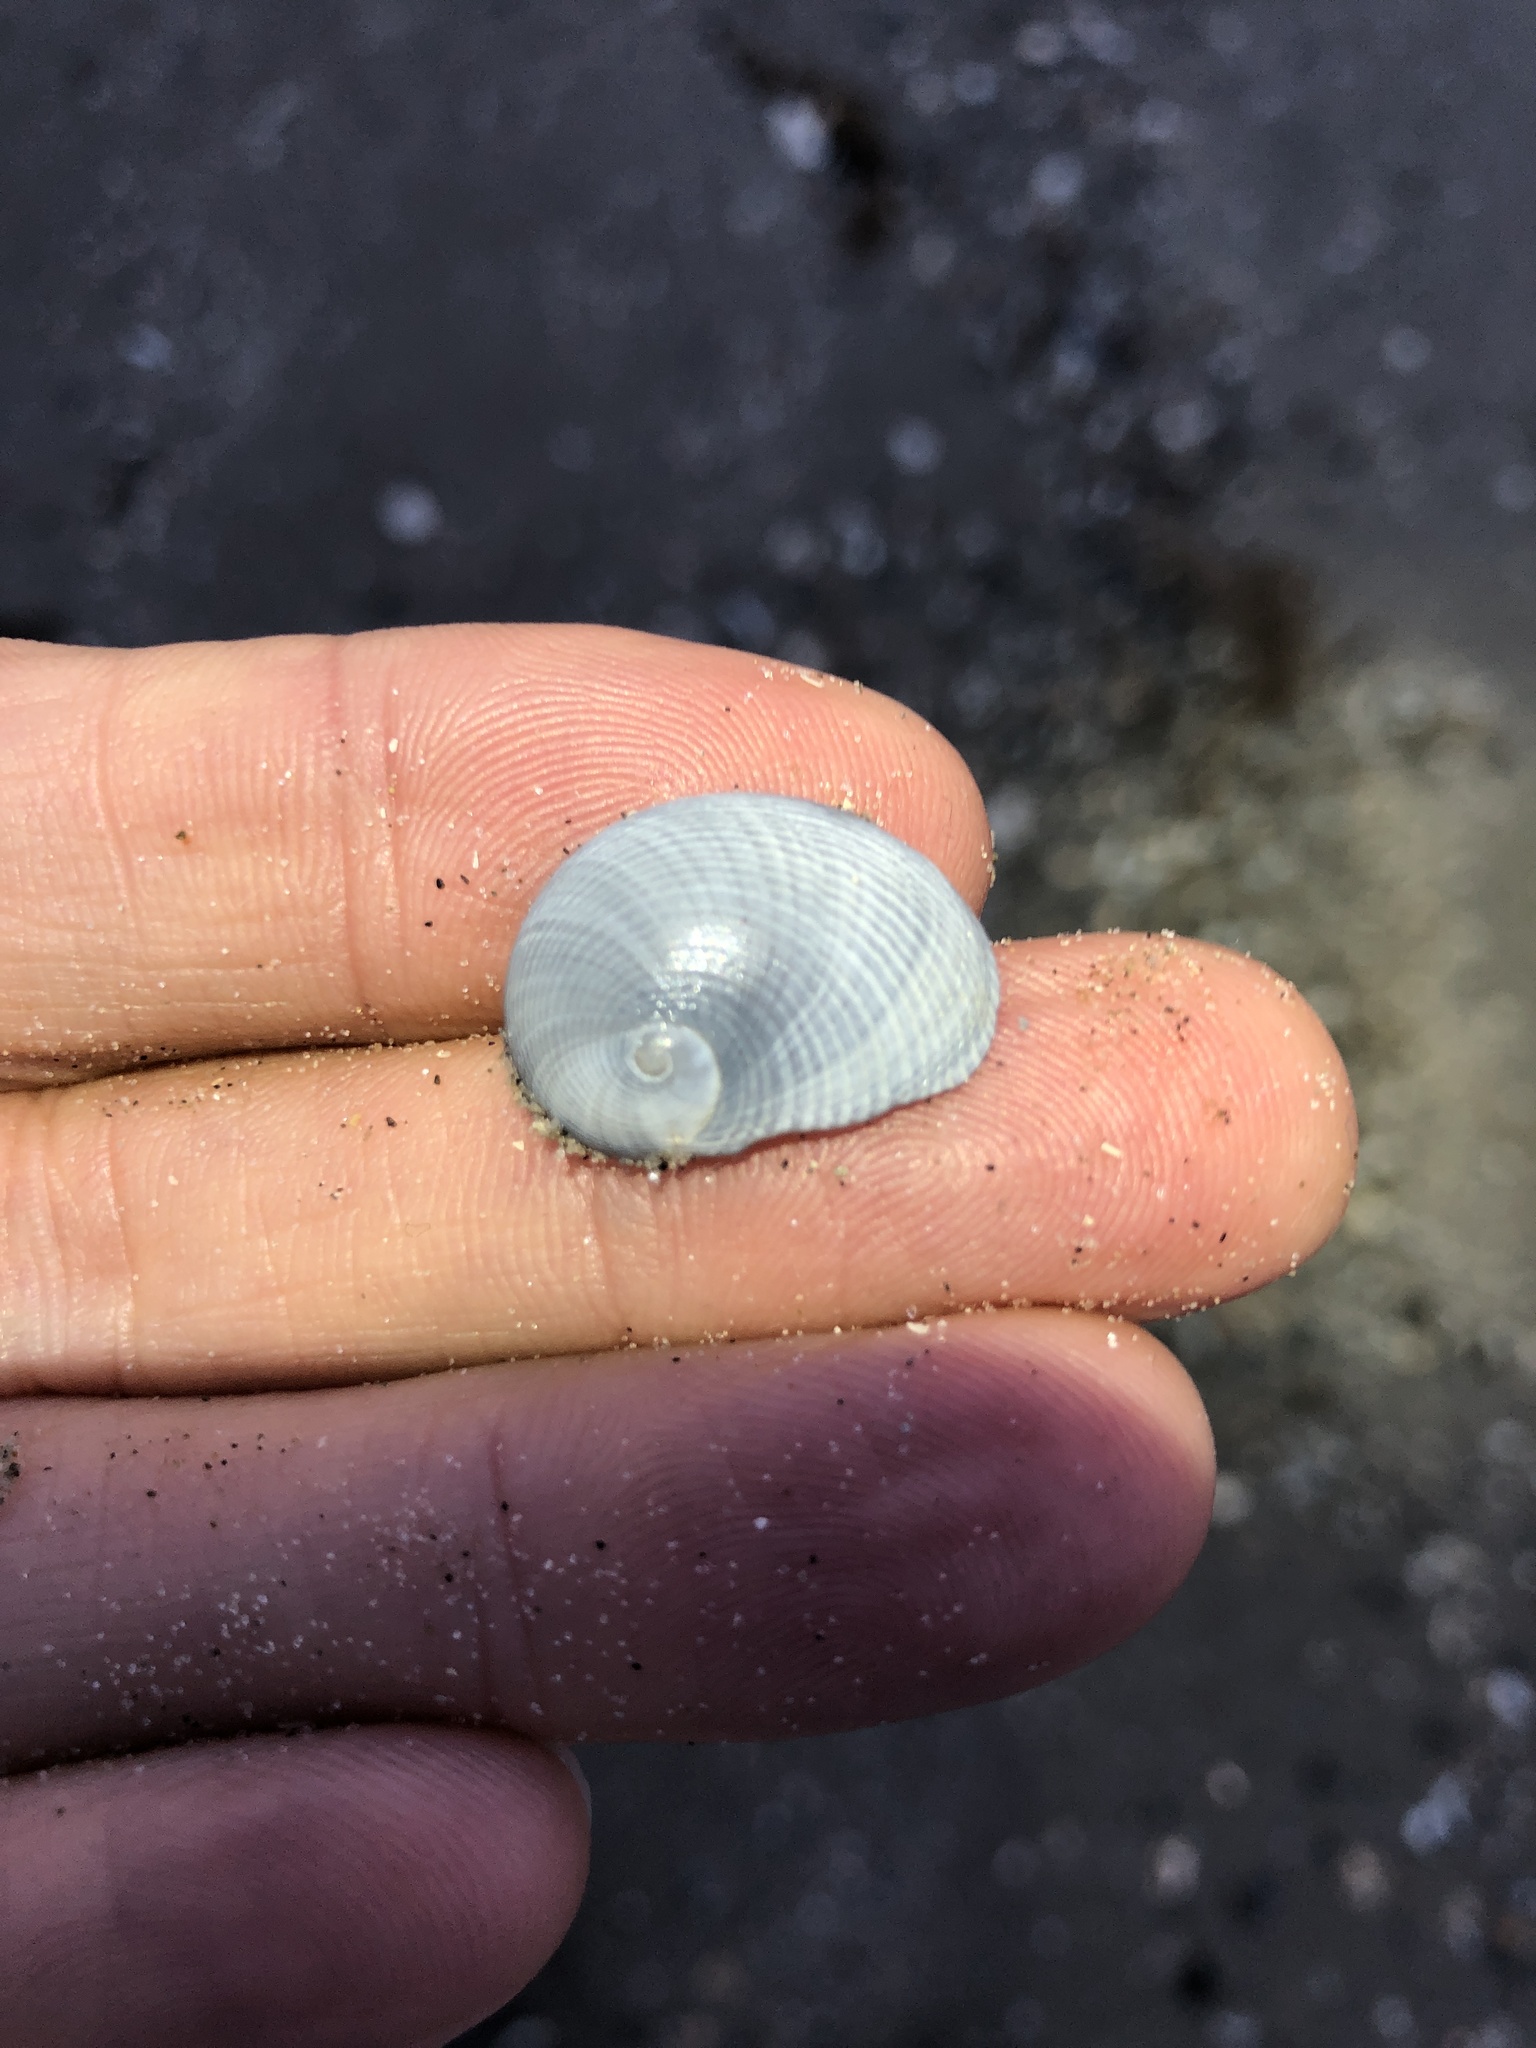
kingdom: Animalia
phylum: Mollusca
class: Gastropoda
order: Littorinimorpha
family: Naticidae
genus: Sinum
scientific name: Sinum perspectivum
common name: White baby ear
